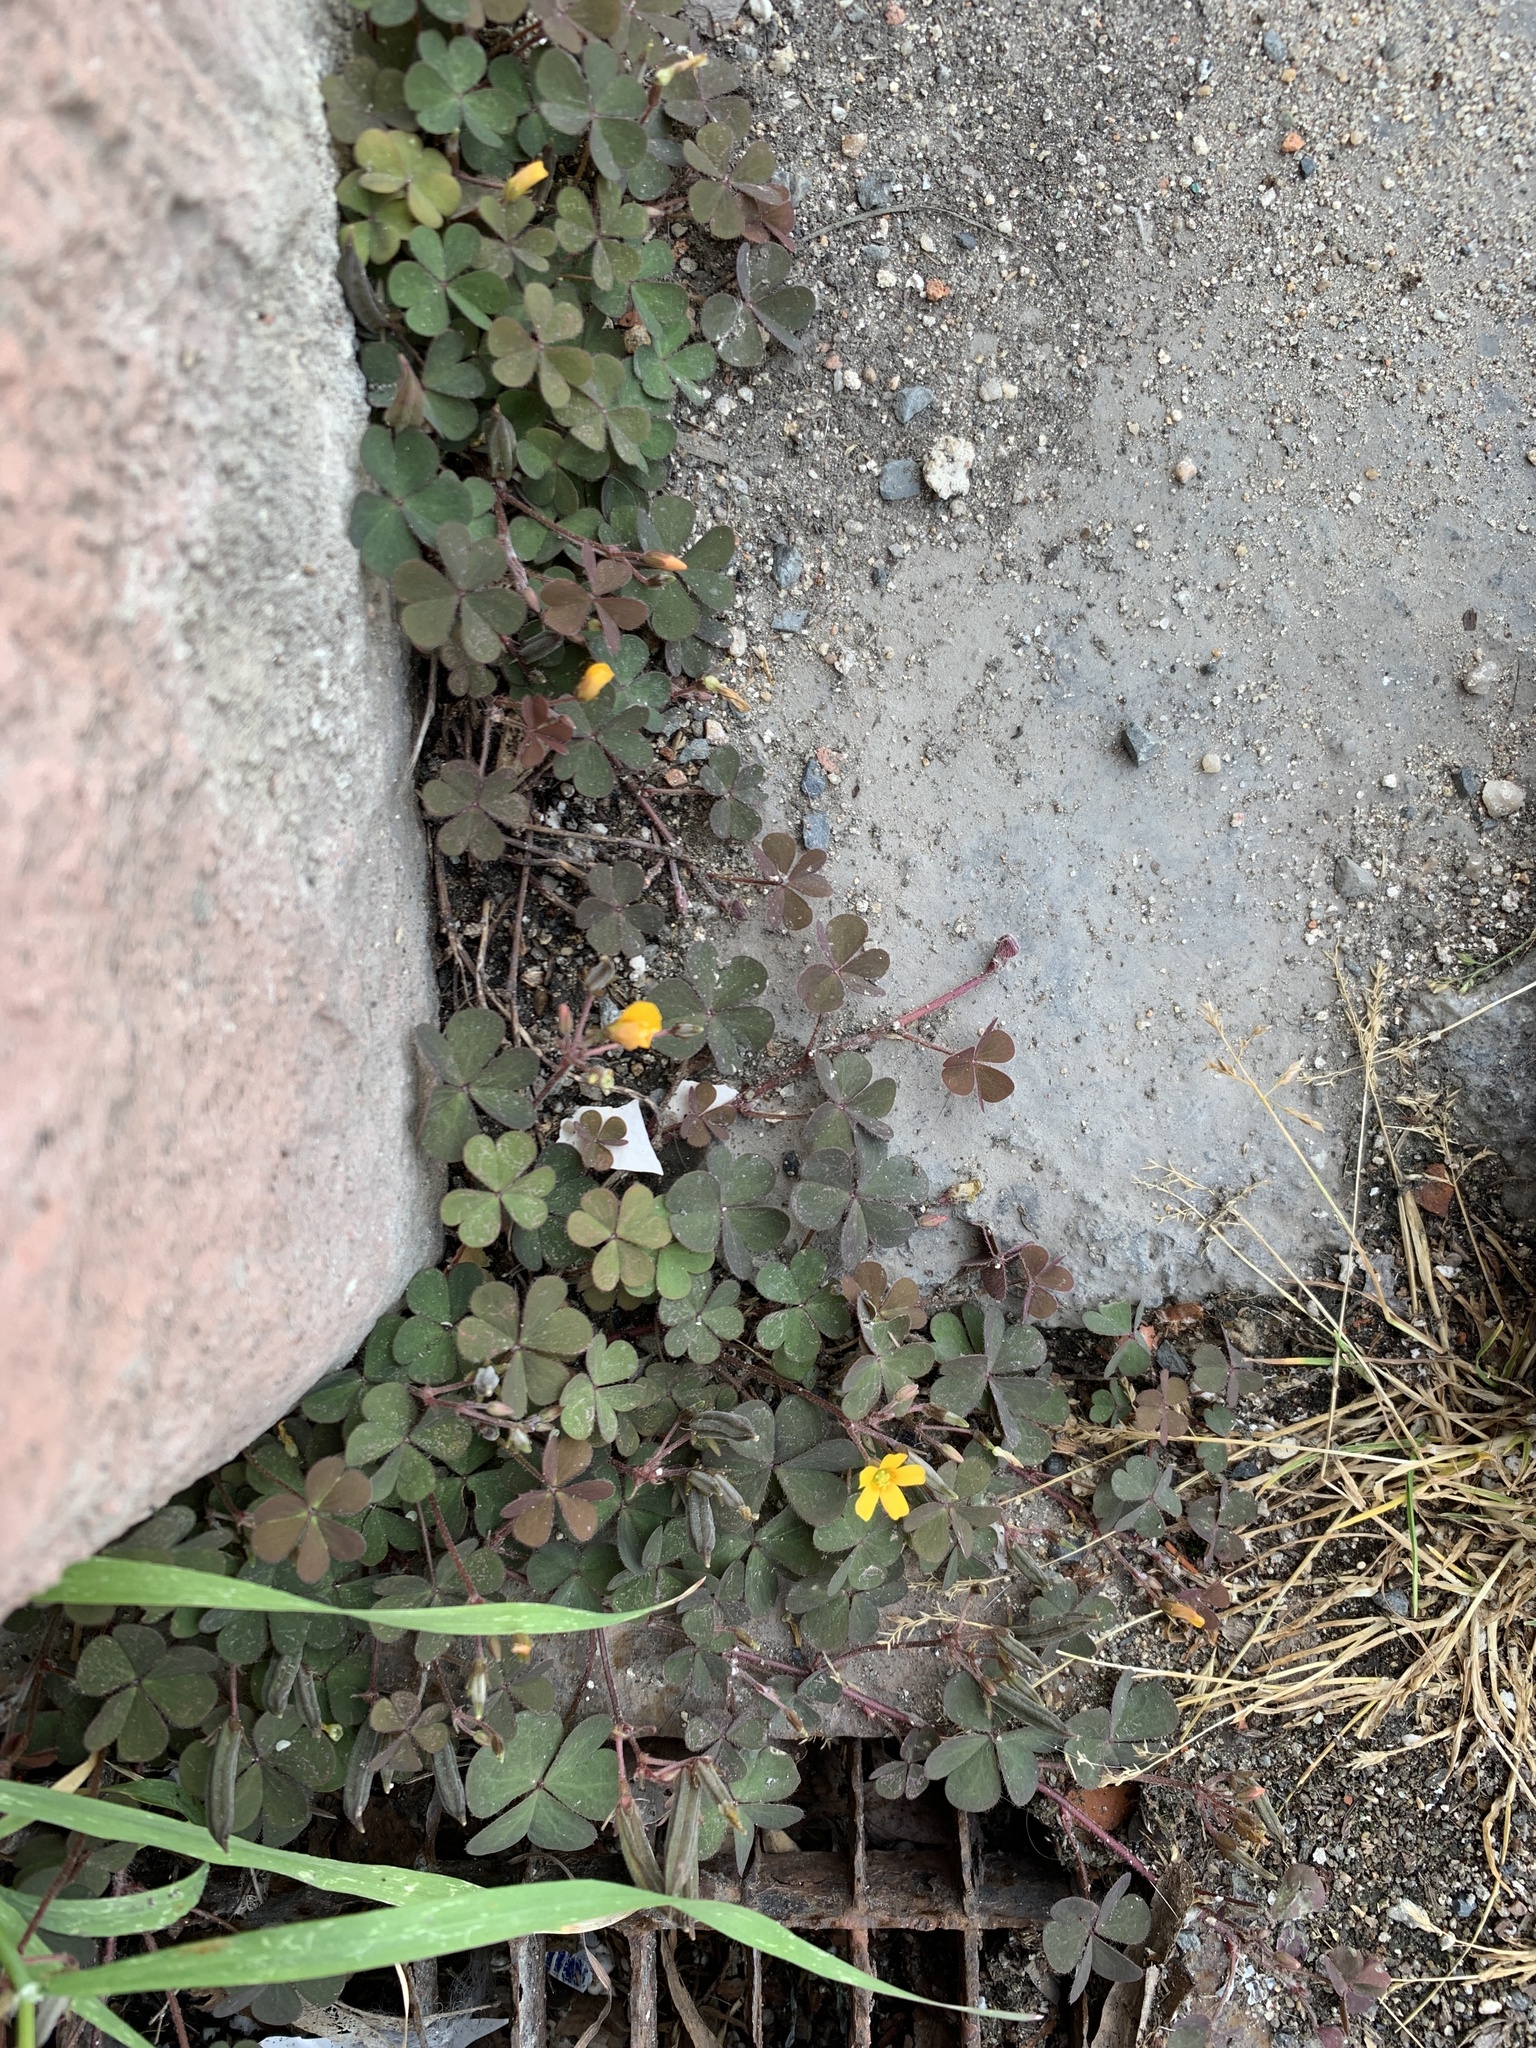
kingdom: Plantae
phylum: Tracheophyta
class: Magnoliopsida
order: Oxalidales
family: Oxalidaceae
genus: Oxalis
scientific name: Oxalis corniculata
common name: Procumbent yellow-sorrel
